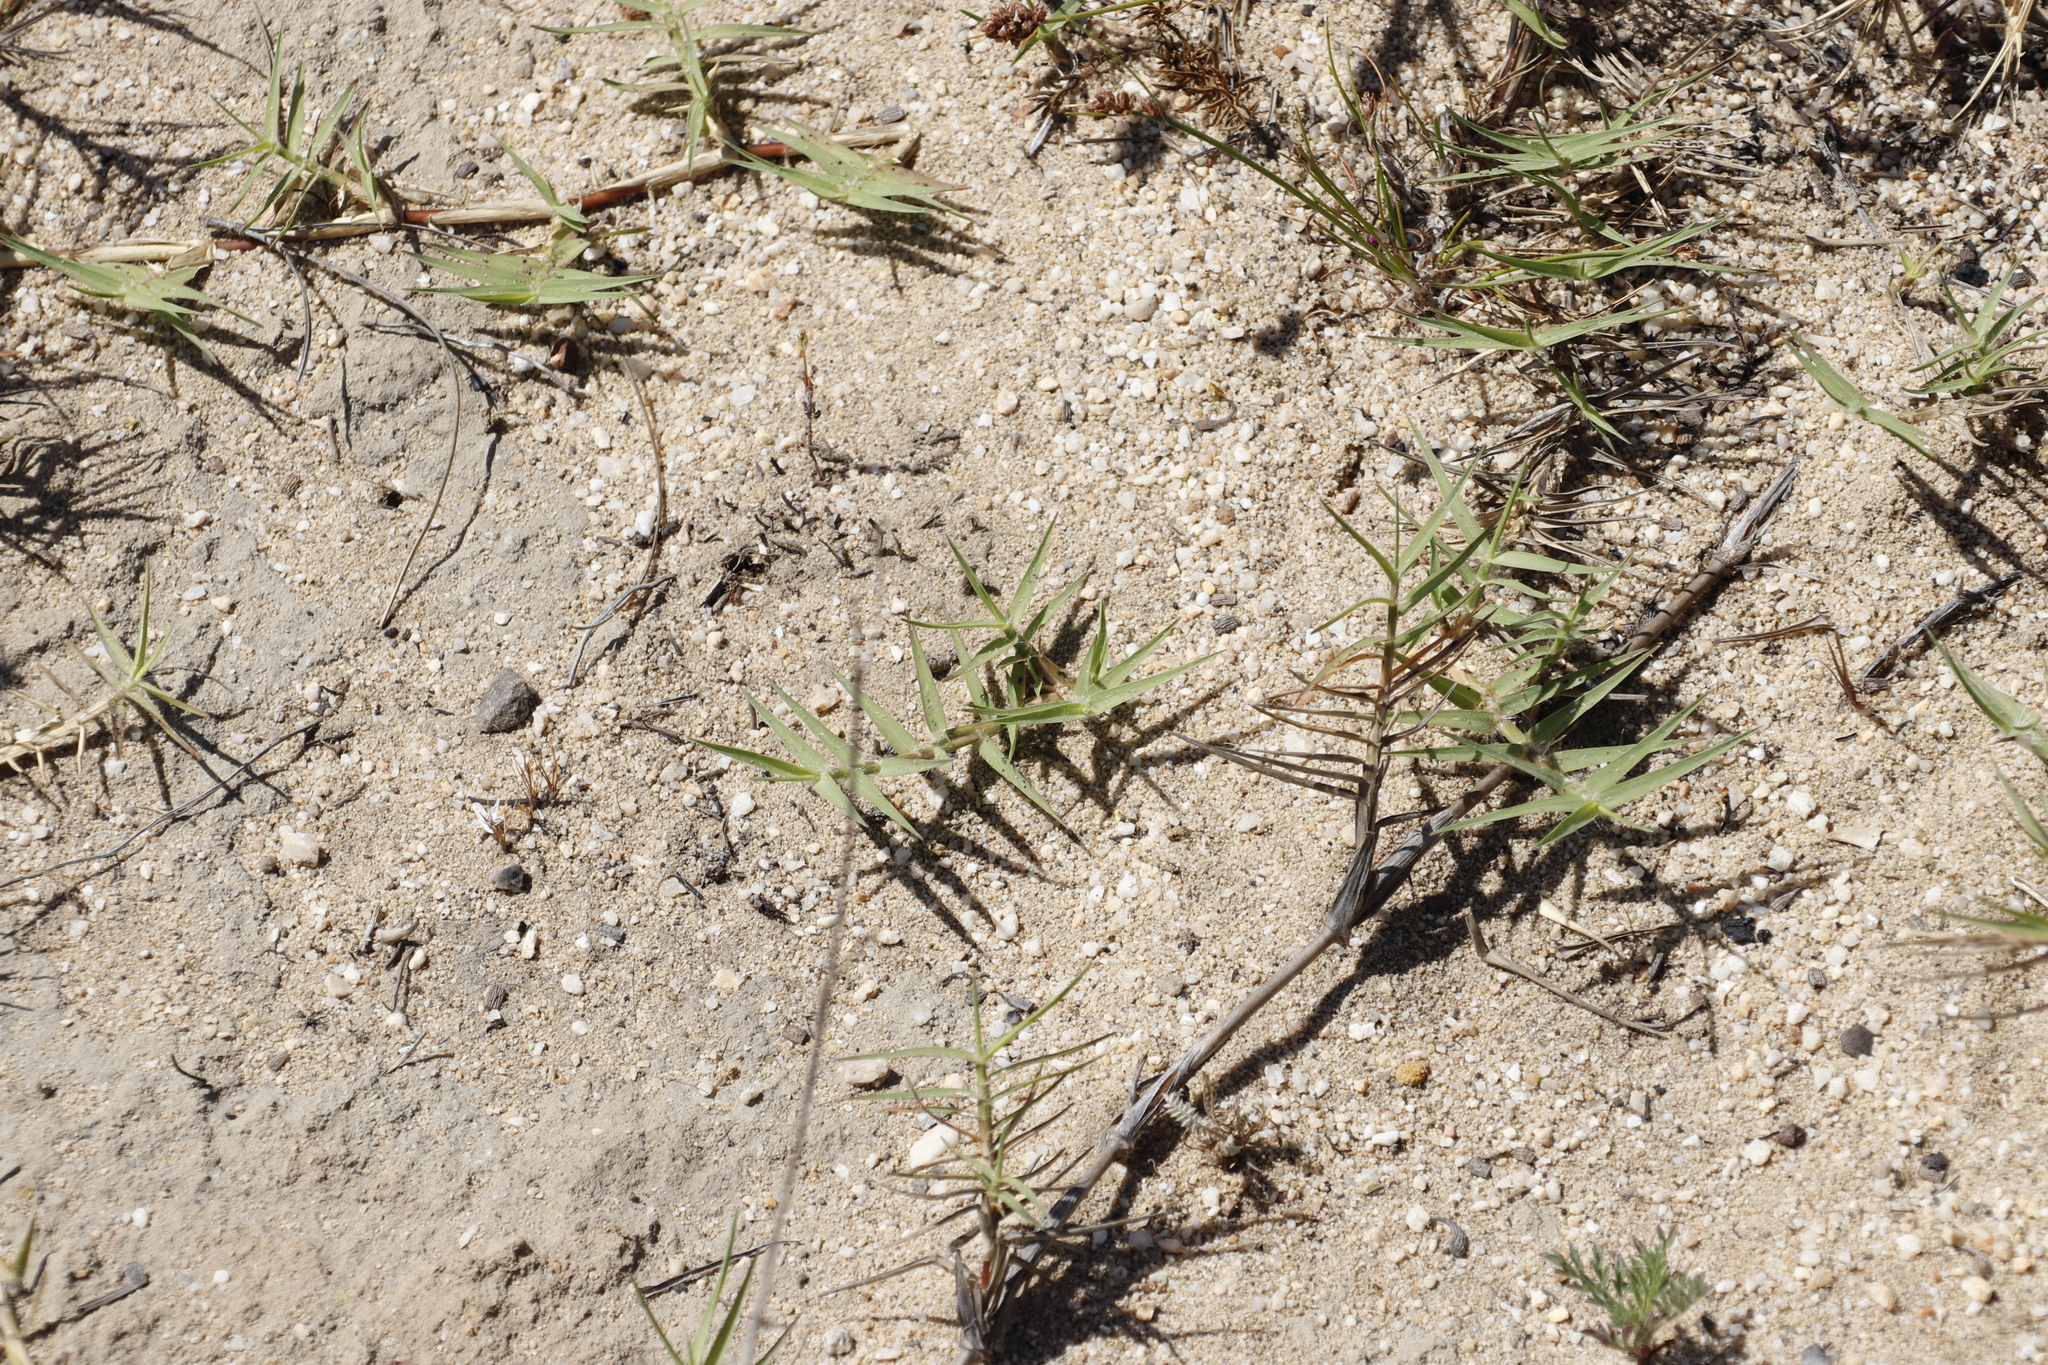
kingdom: Plantae
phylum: Tracheophyta
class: Liliopsida
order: Poales
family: Poaceae
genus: Cynodon
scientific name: Cynodon dactylon
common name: Bermuda grass
